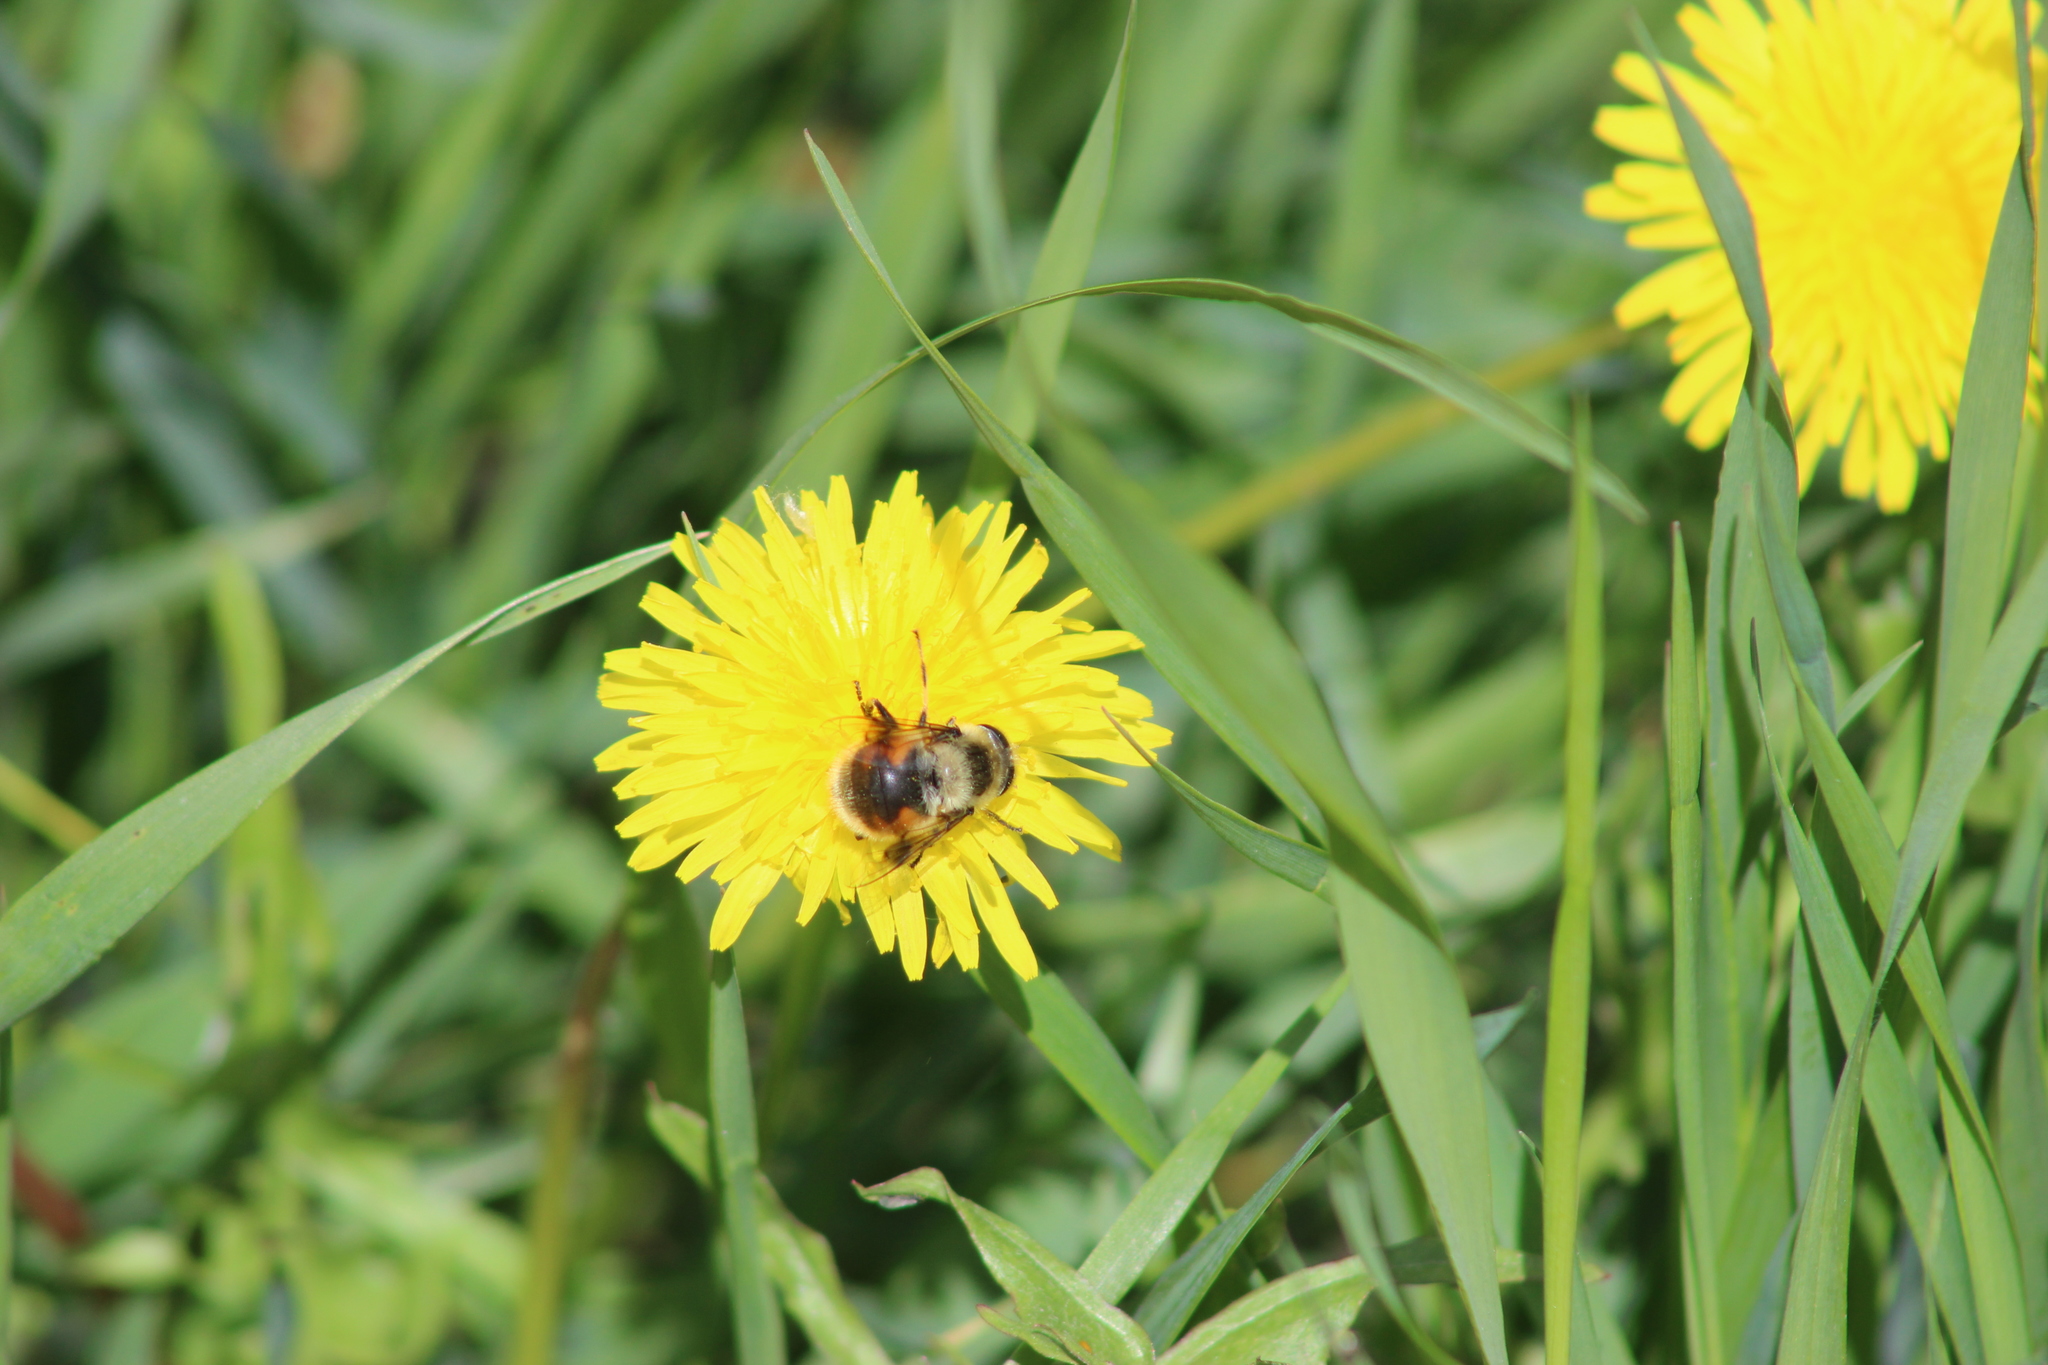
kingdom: Animalia
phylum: Arthropoda
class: Insecta
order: Diptera
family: Syrphidae
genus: Eristalis
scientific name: Eristalis anthophorina
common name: Orange-spotted drone fly
